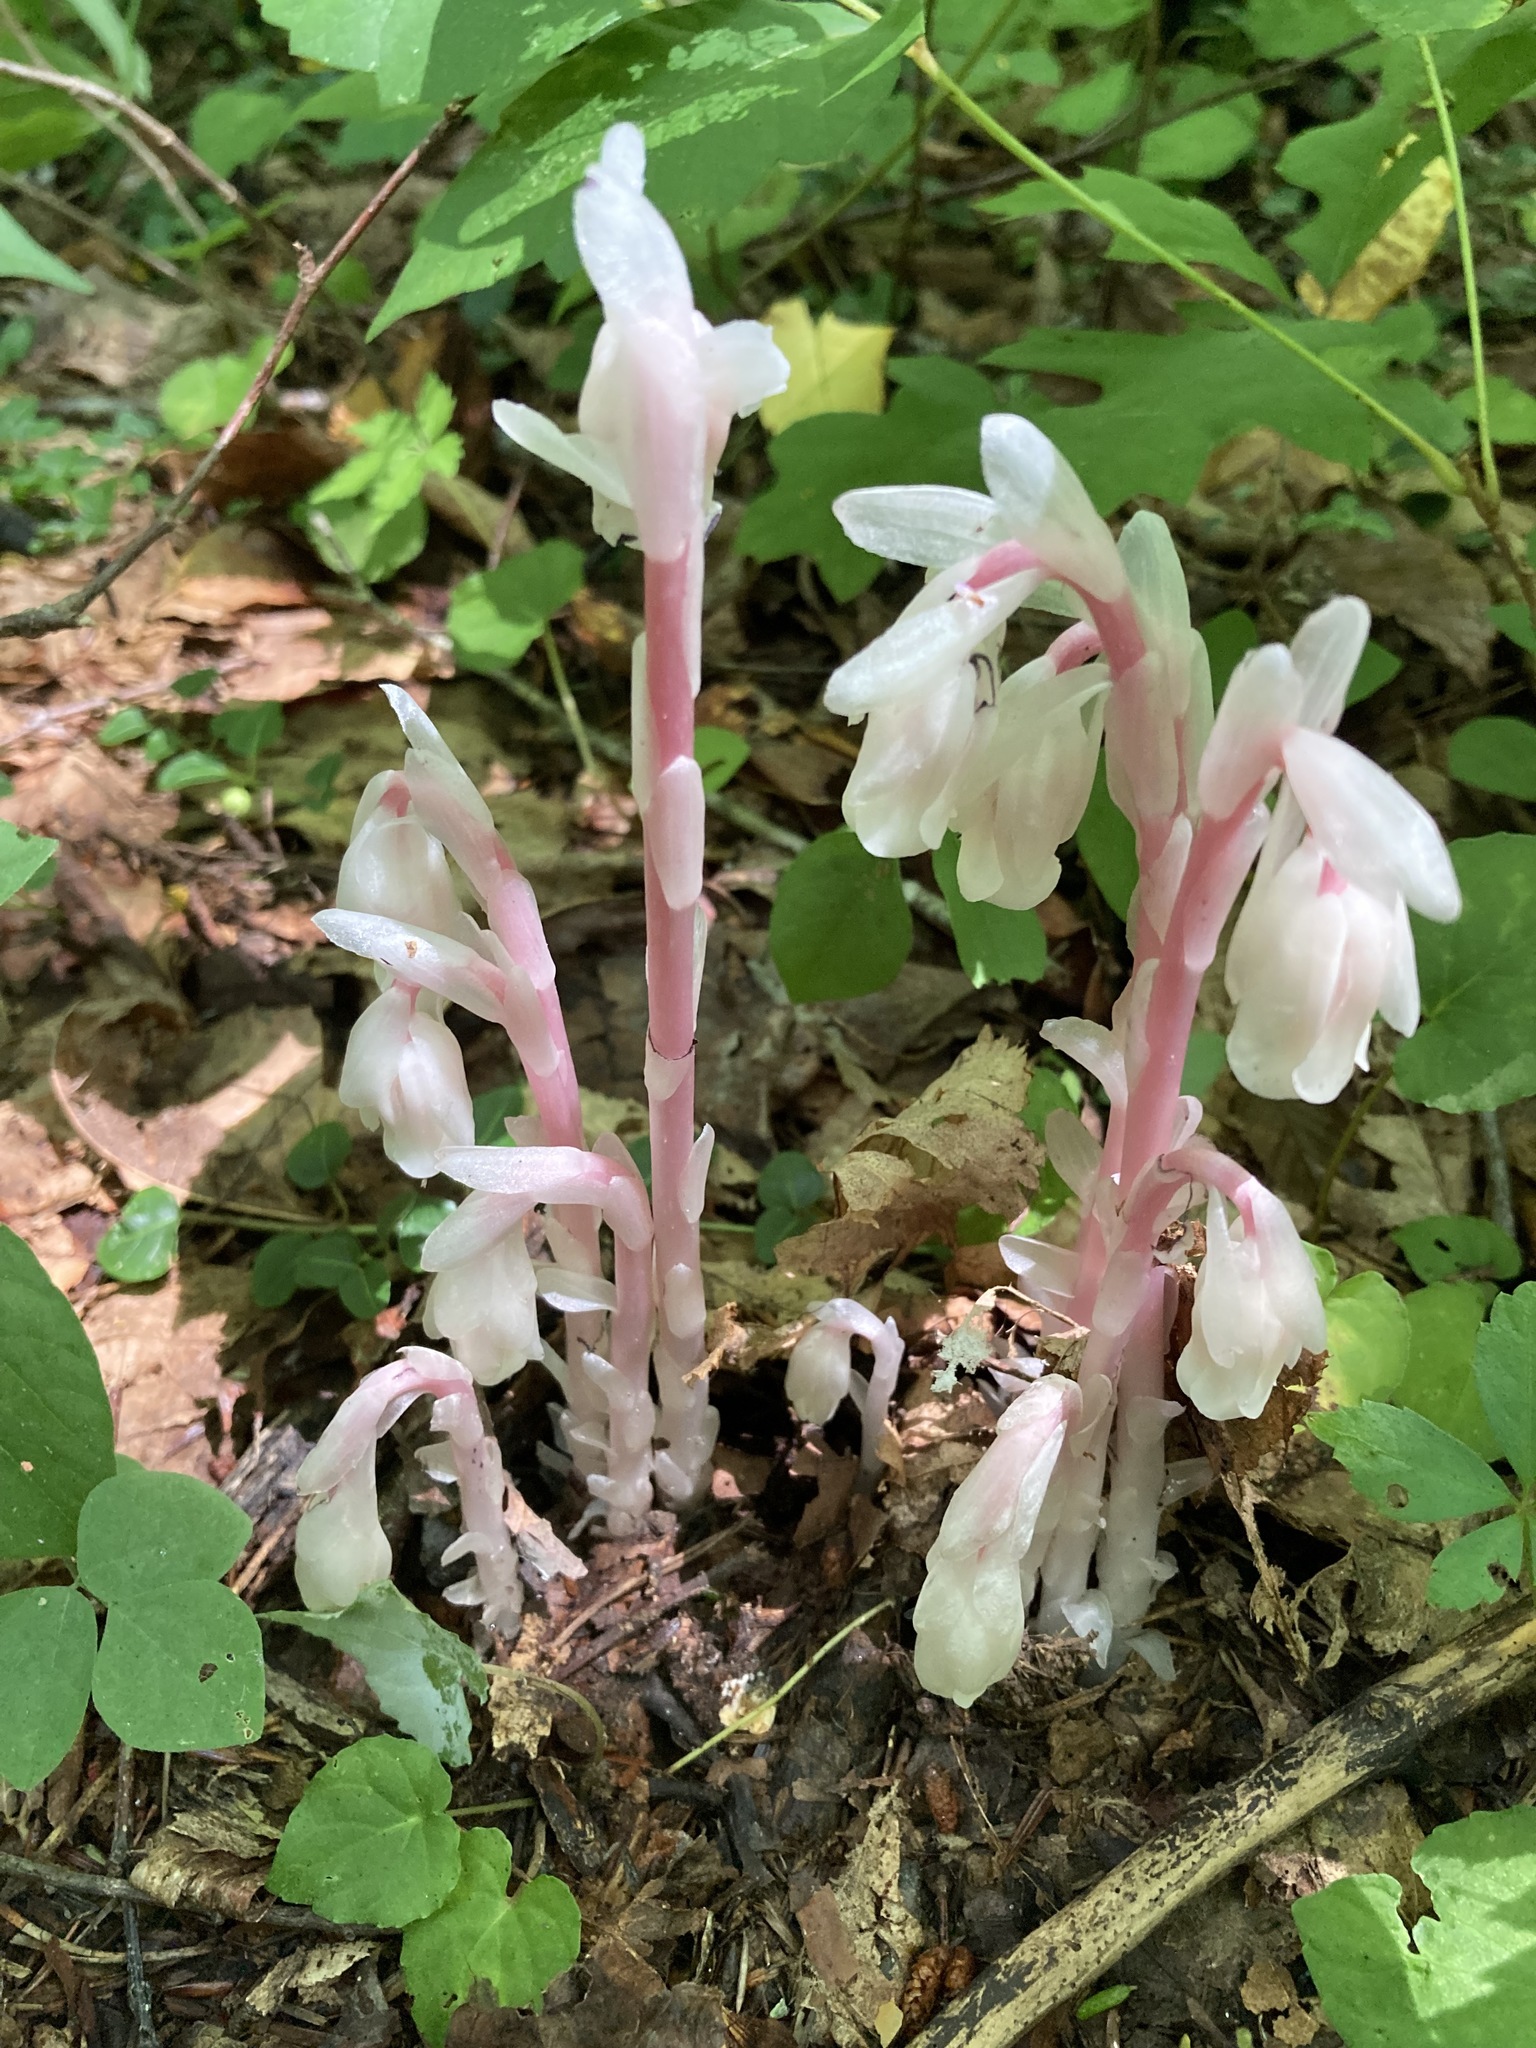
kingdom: Plantae
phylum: Tracheophyta
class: Magnoliopsida
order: Ericales
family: Ericaceae
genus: Monotropa
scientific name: Monotropa uniflora
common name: Convulsion root
